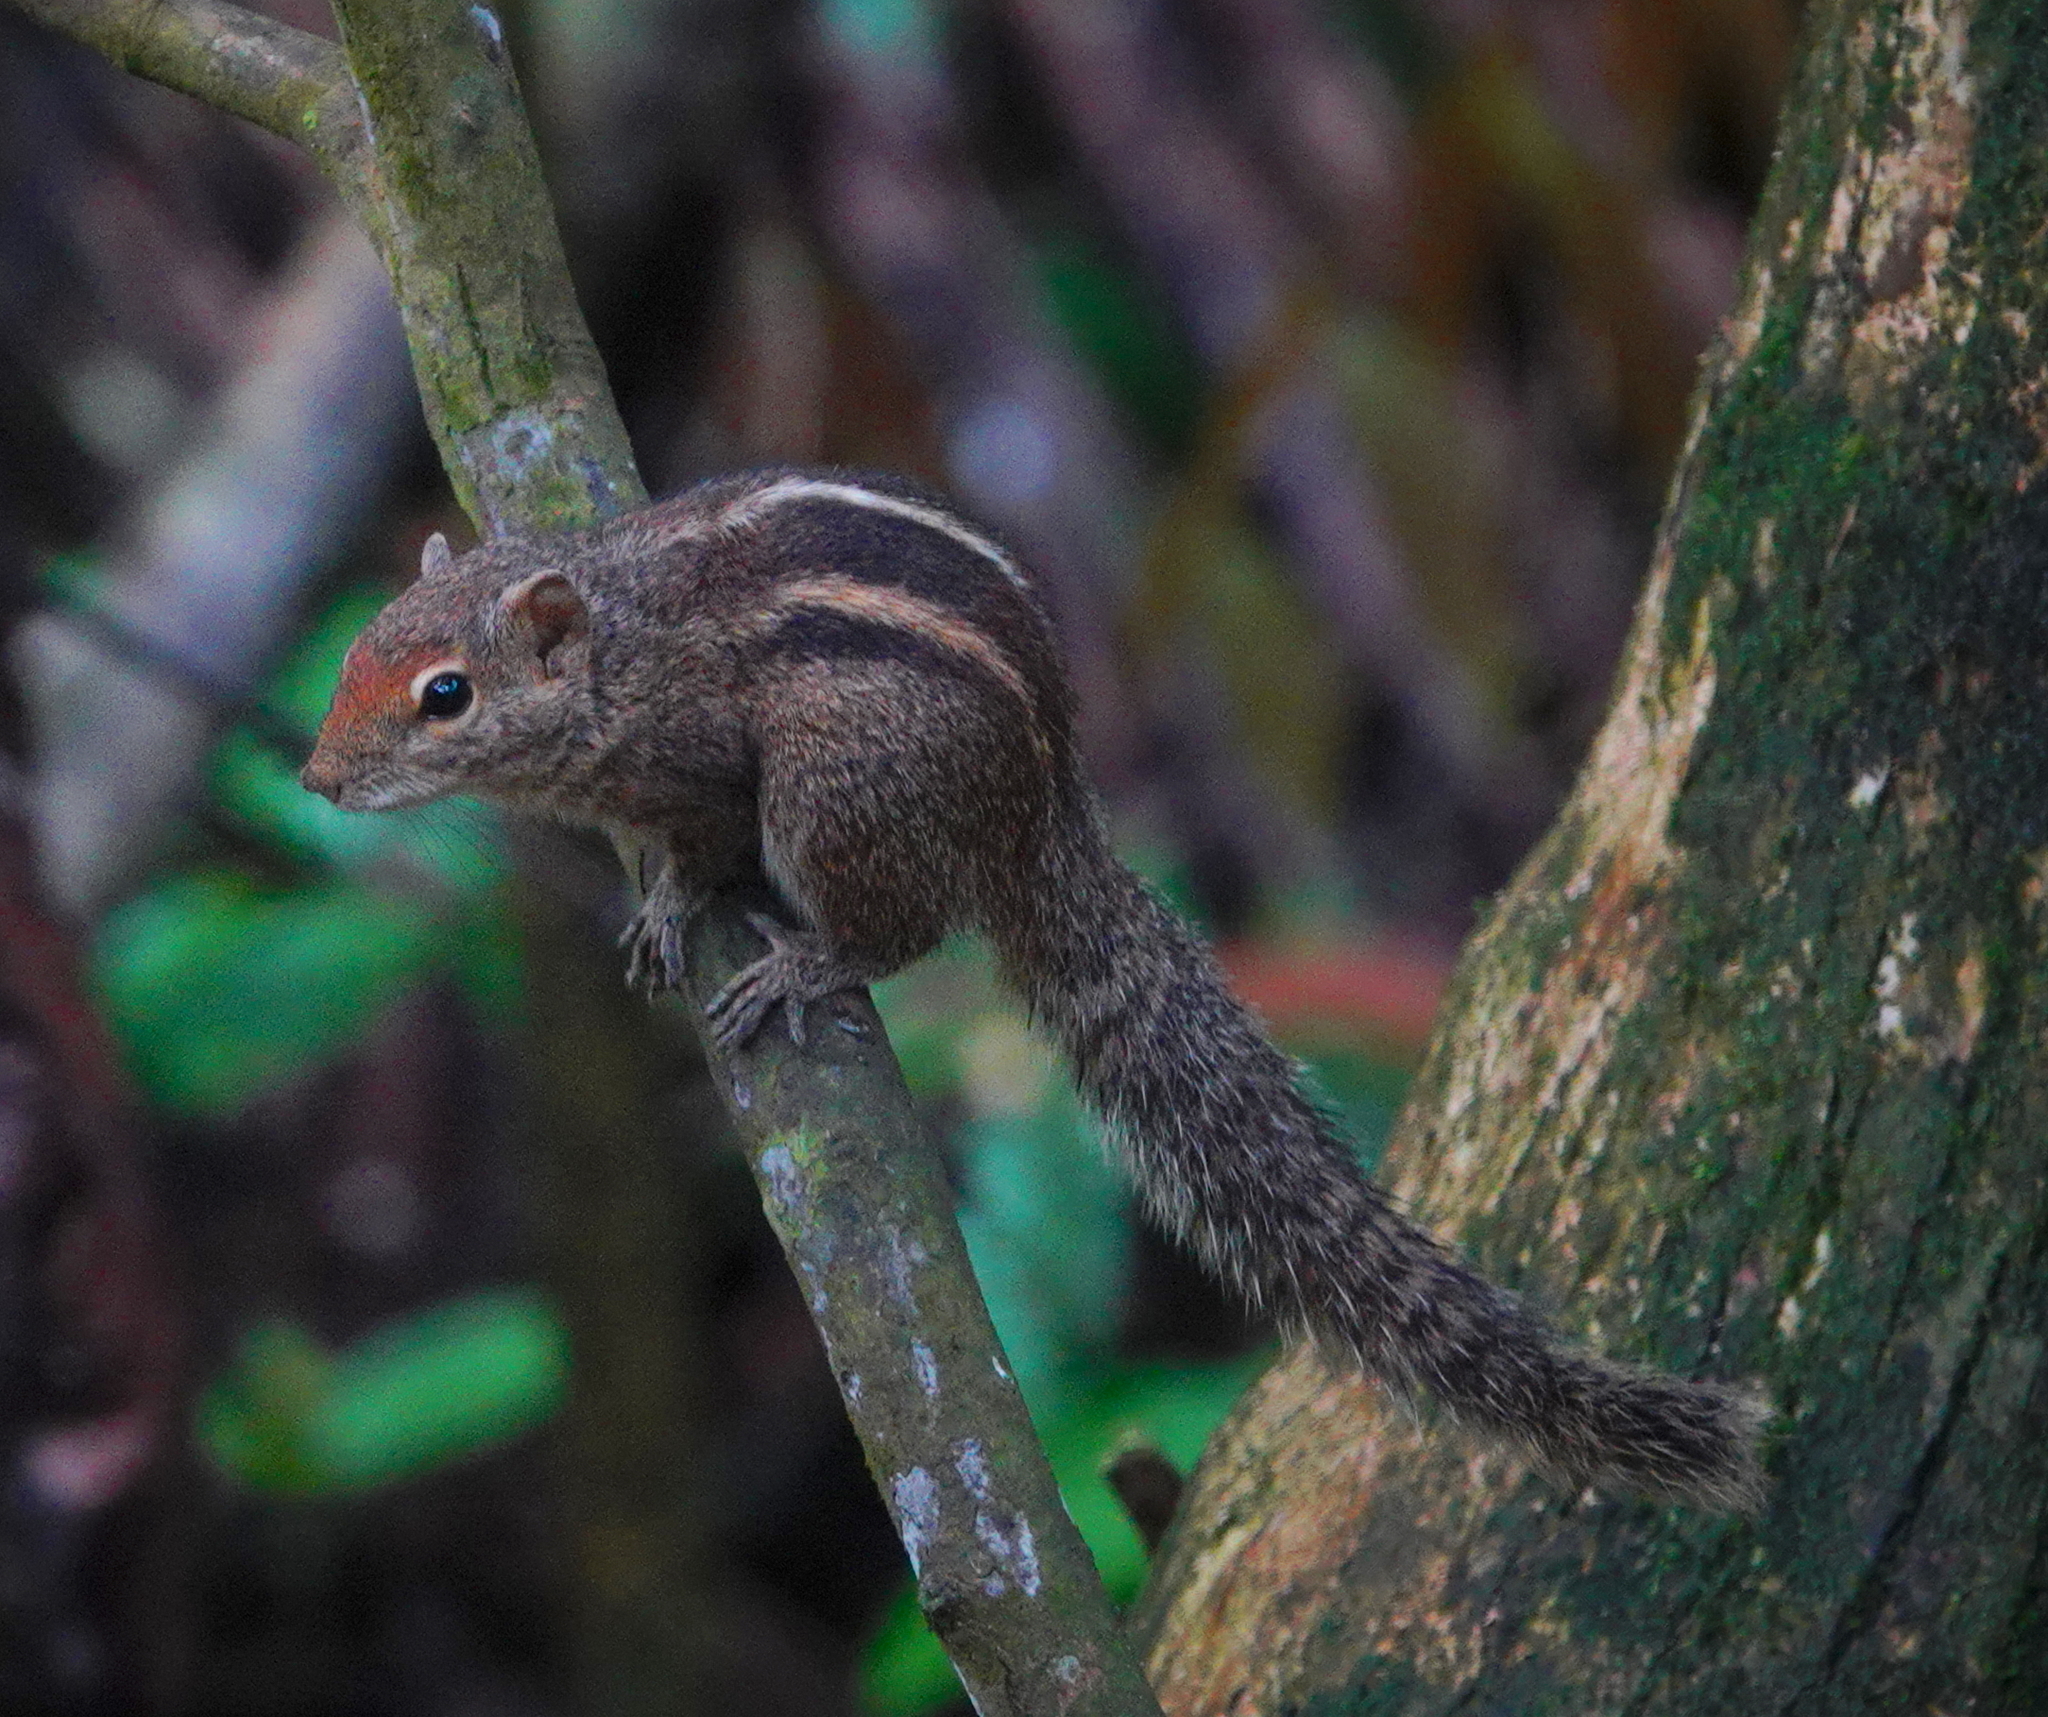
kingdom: Animalia
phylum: Chordata
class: Mammalia
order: Rodentia
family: Sciuridae
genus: Funambulus
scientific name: Funambulus palmarum
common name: Indian palm squirrel
